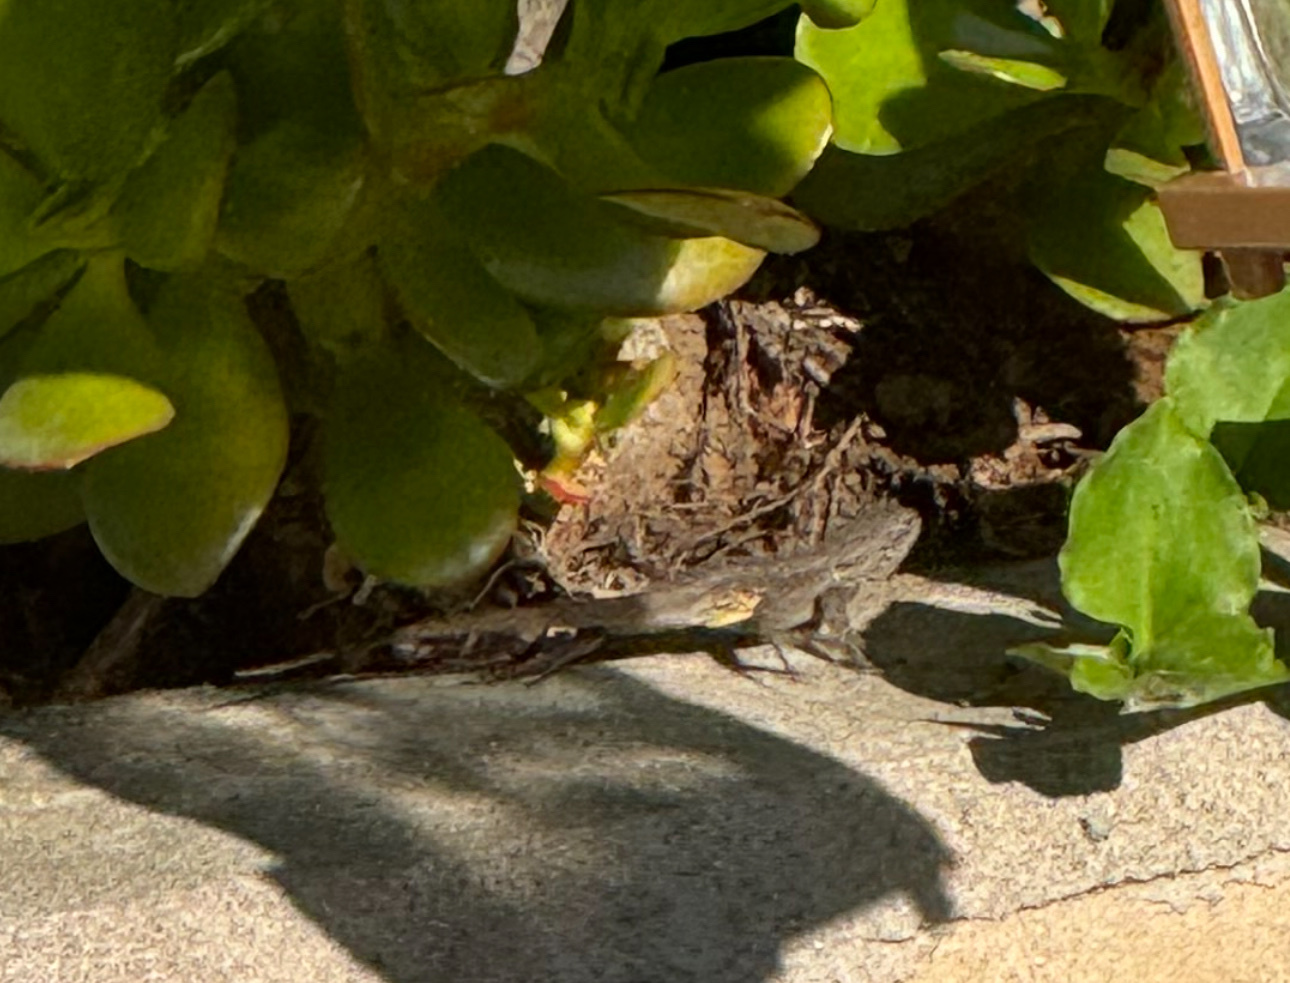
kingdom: Animalia
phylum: Chordata
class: Squamata
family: Phrynosomatidae
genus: Sceloporus
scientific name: Sceloporus occidentalis
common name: Western fence lizard
